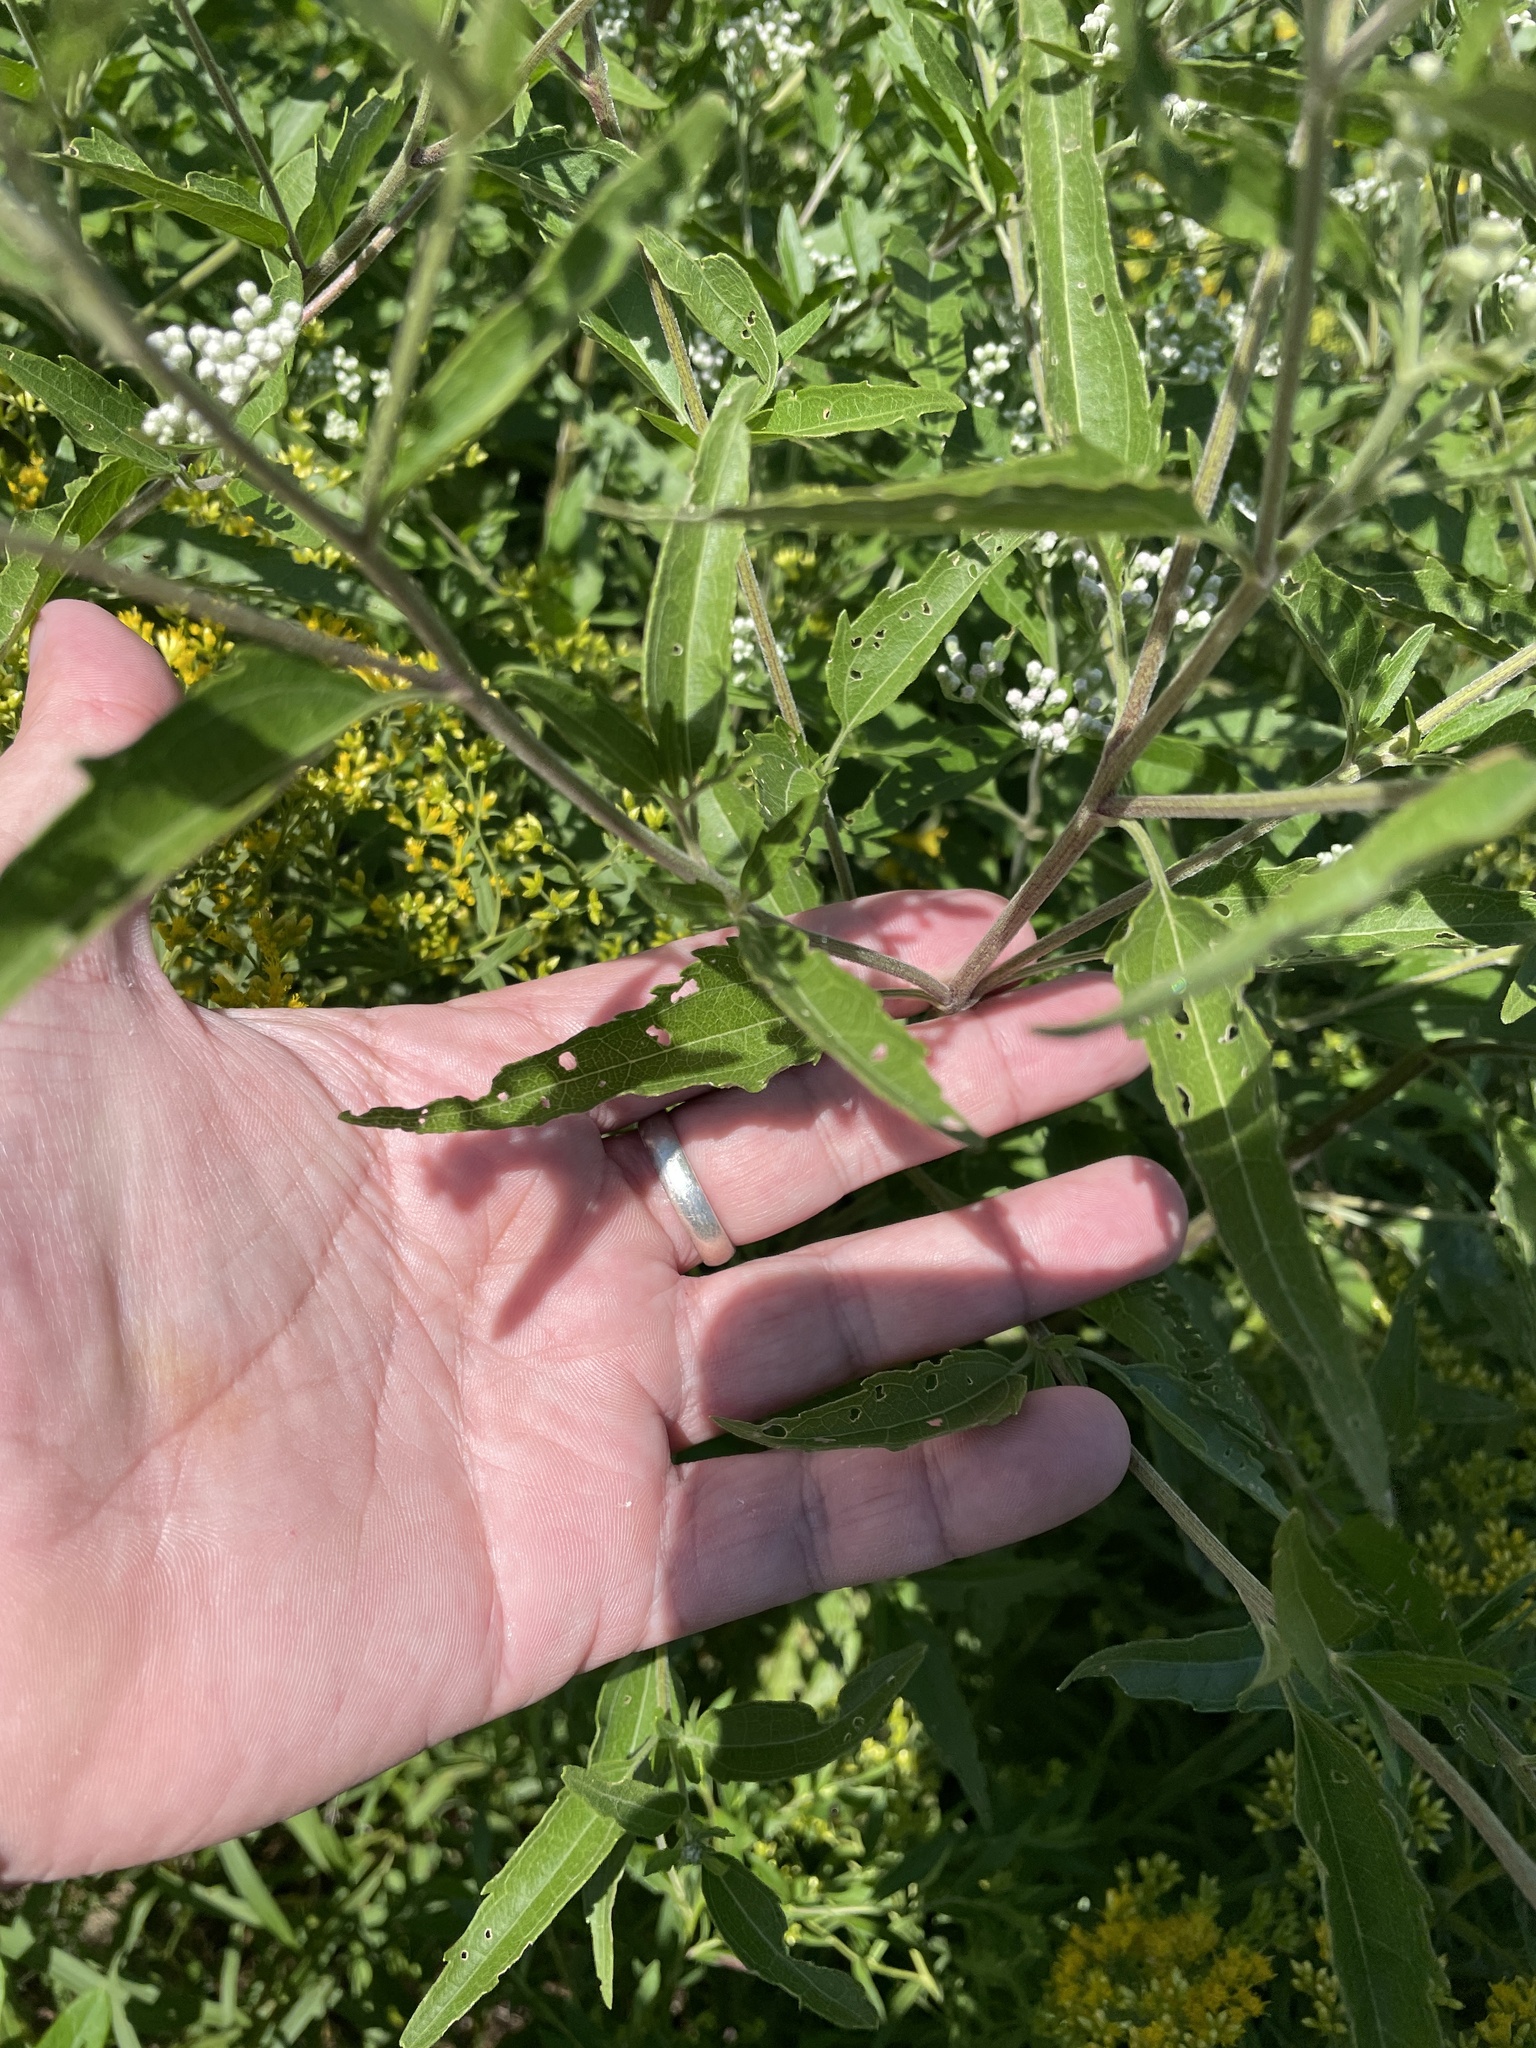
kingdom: Plantae
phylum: Tracheophyta
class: Magnoliopsida
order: Asterales
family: Asteraceae
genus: Eupatorium
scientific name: Eupatorium serotinum
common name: Late boneset
